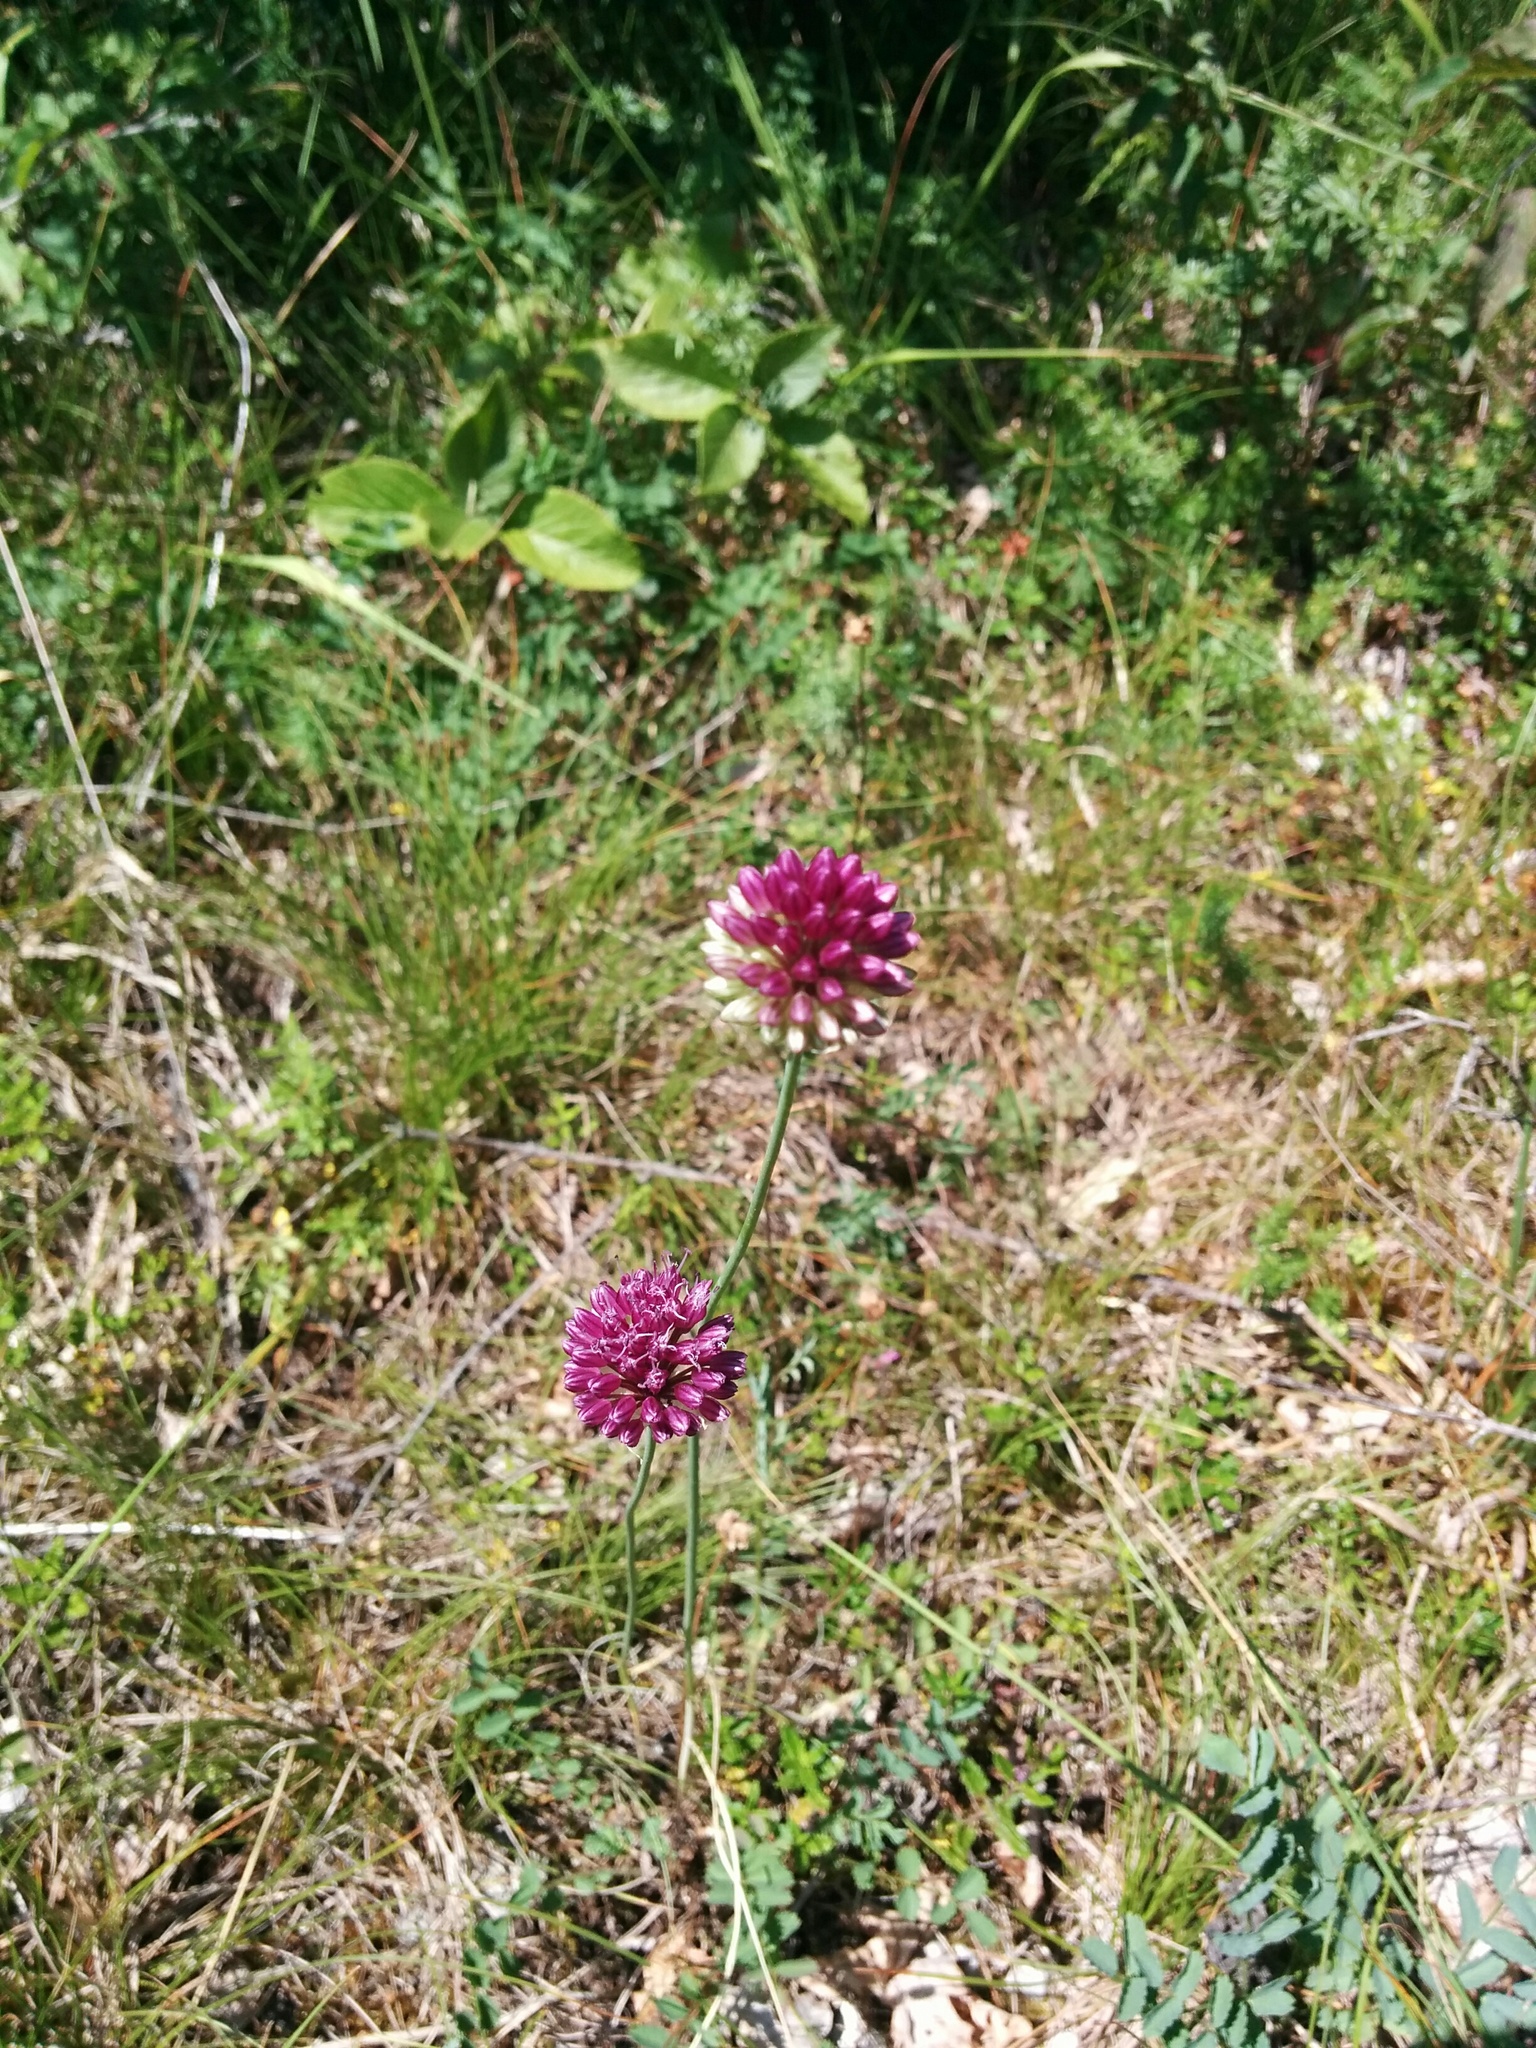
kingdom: Plantae
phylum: Tracheophyta
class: Liliopsida
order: Asparagales
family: Amaryllidaceae
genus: Allium
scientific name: Allium sphaerocephalon
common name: Round-headed leek
